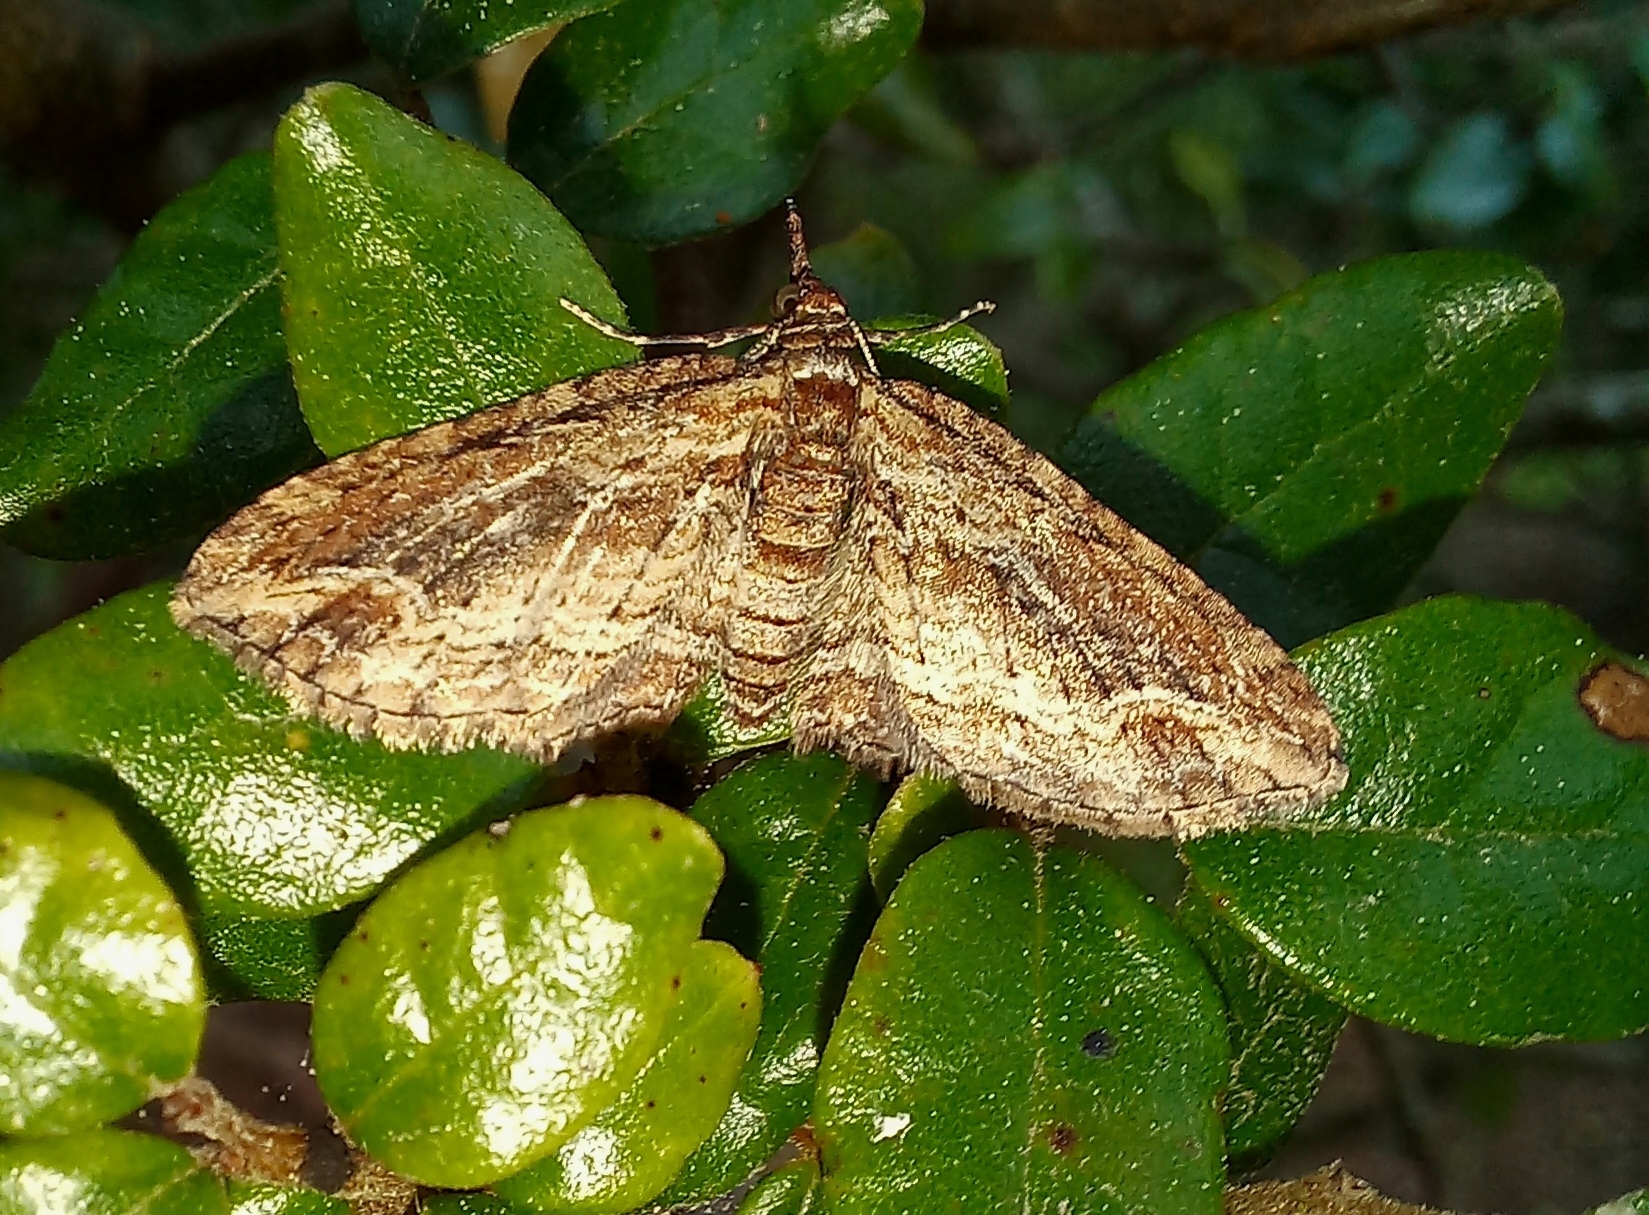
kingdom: Animalia
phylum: Arthropoda
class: Insecta
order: Lepidoptera
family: Geometridae
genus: Chloroclystis
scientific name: Chloroclystis filata
